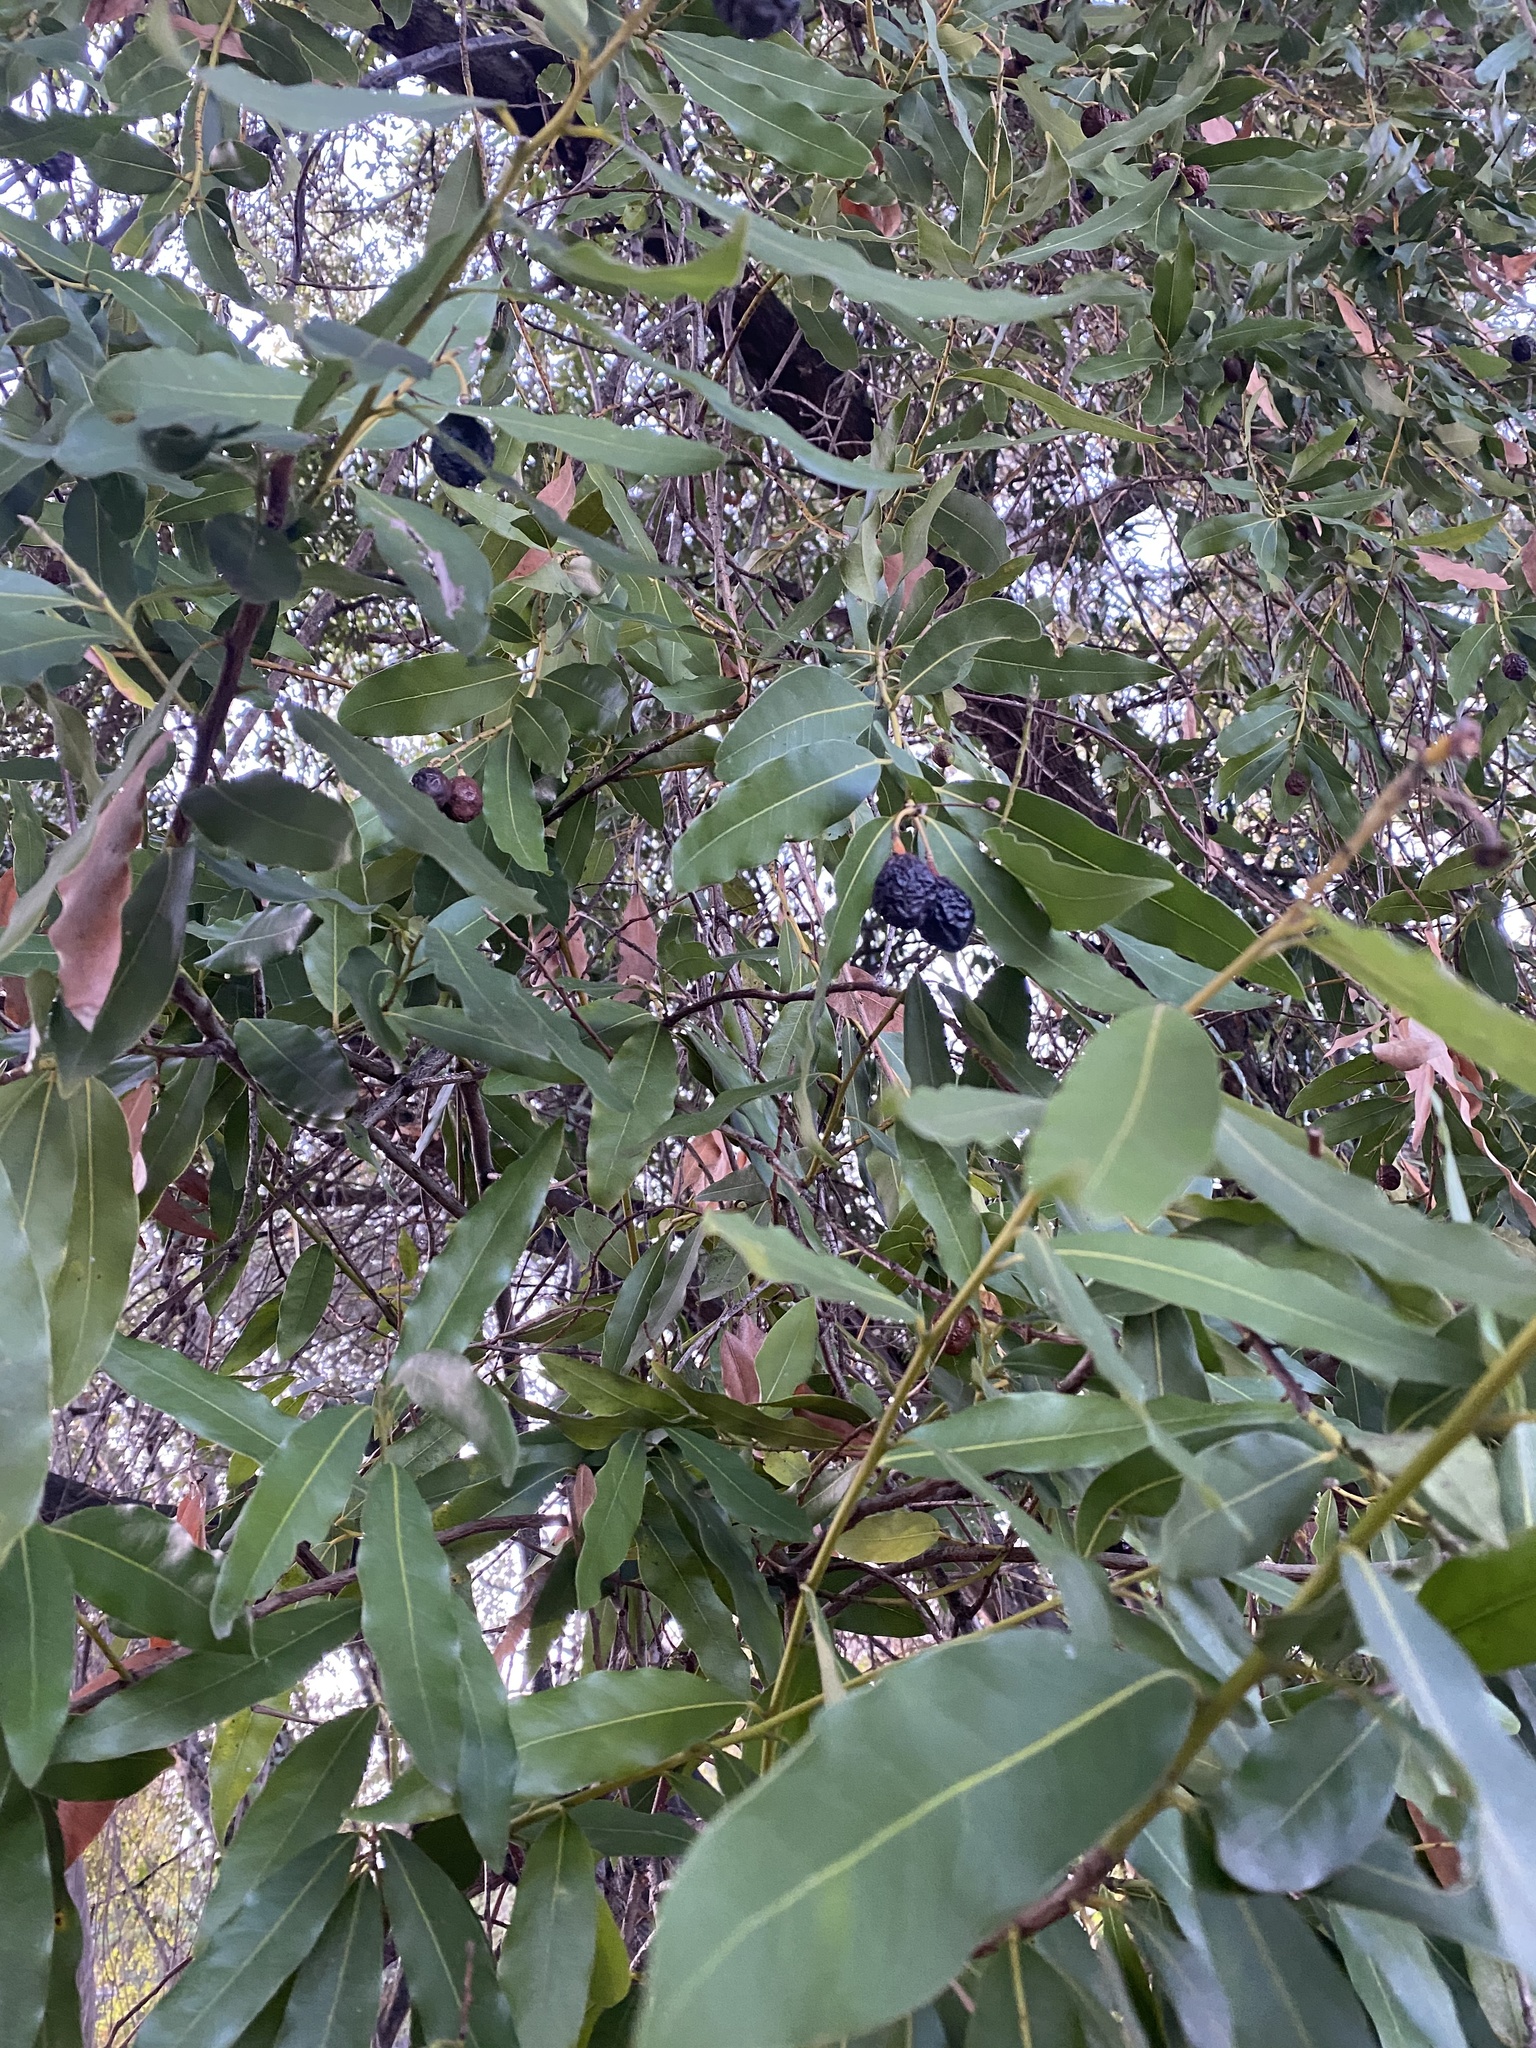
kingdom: Plantae
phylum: Tracheophyta
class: Magnoliopsida
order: Laurales
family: Lauraceae
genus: Umbellularia
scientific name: Umbellularia californica
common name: California bay
